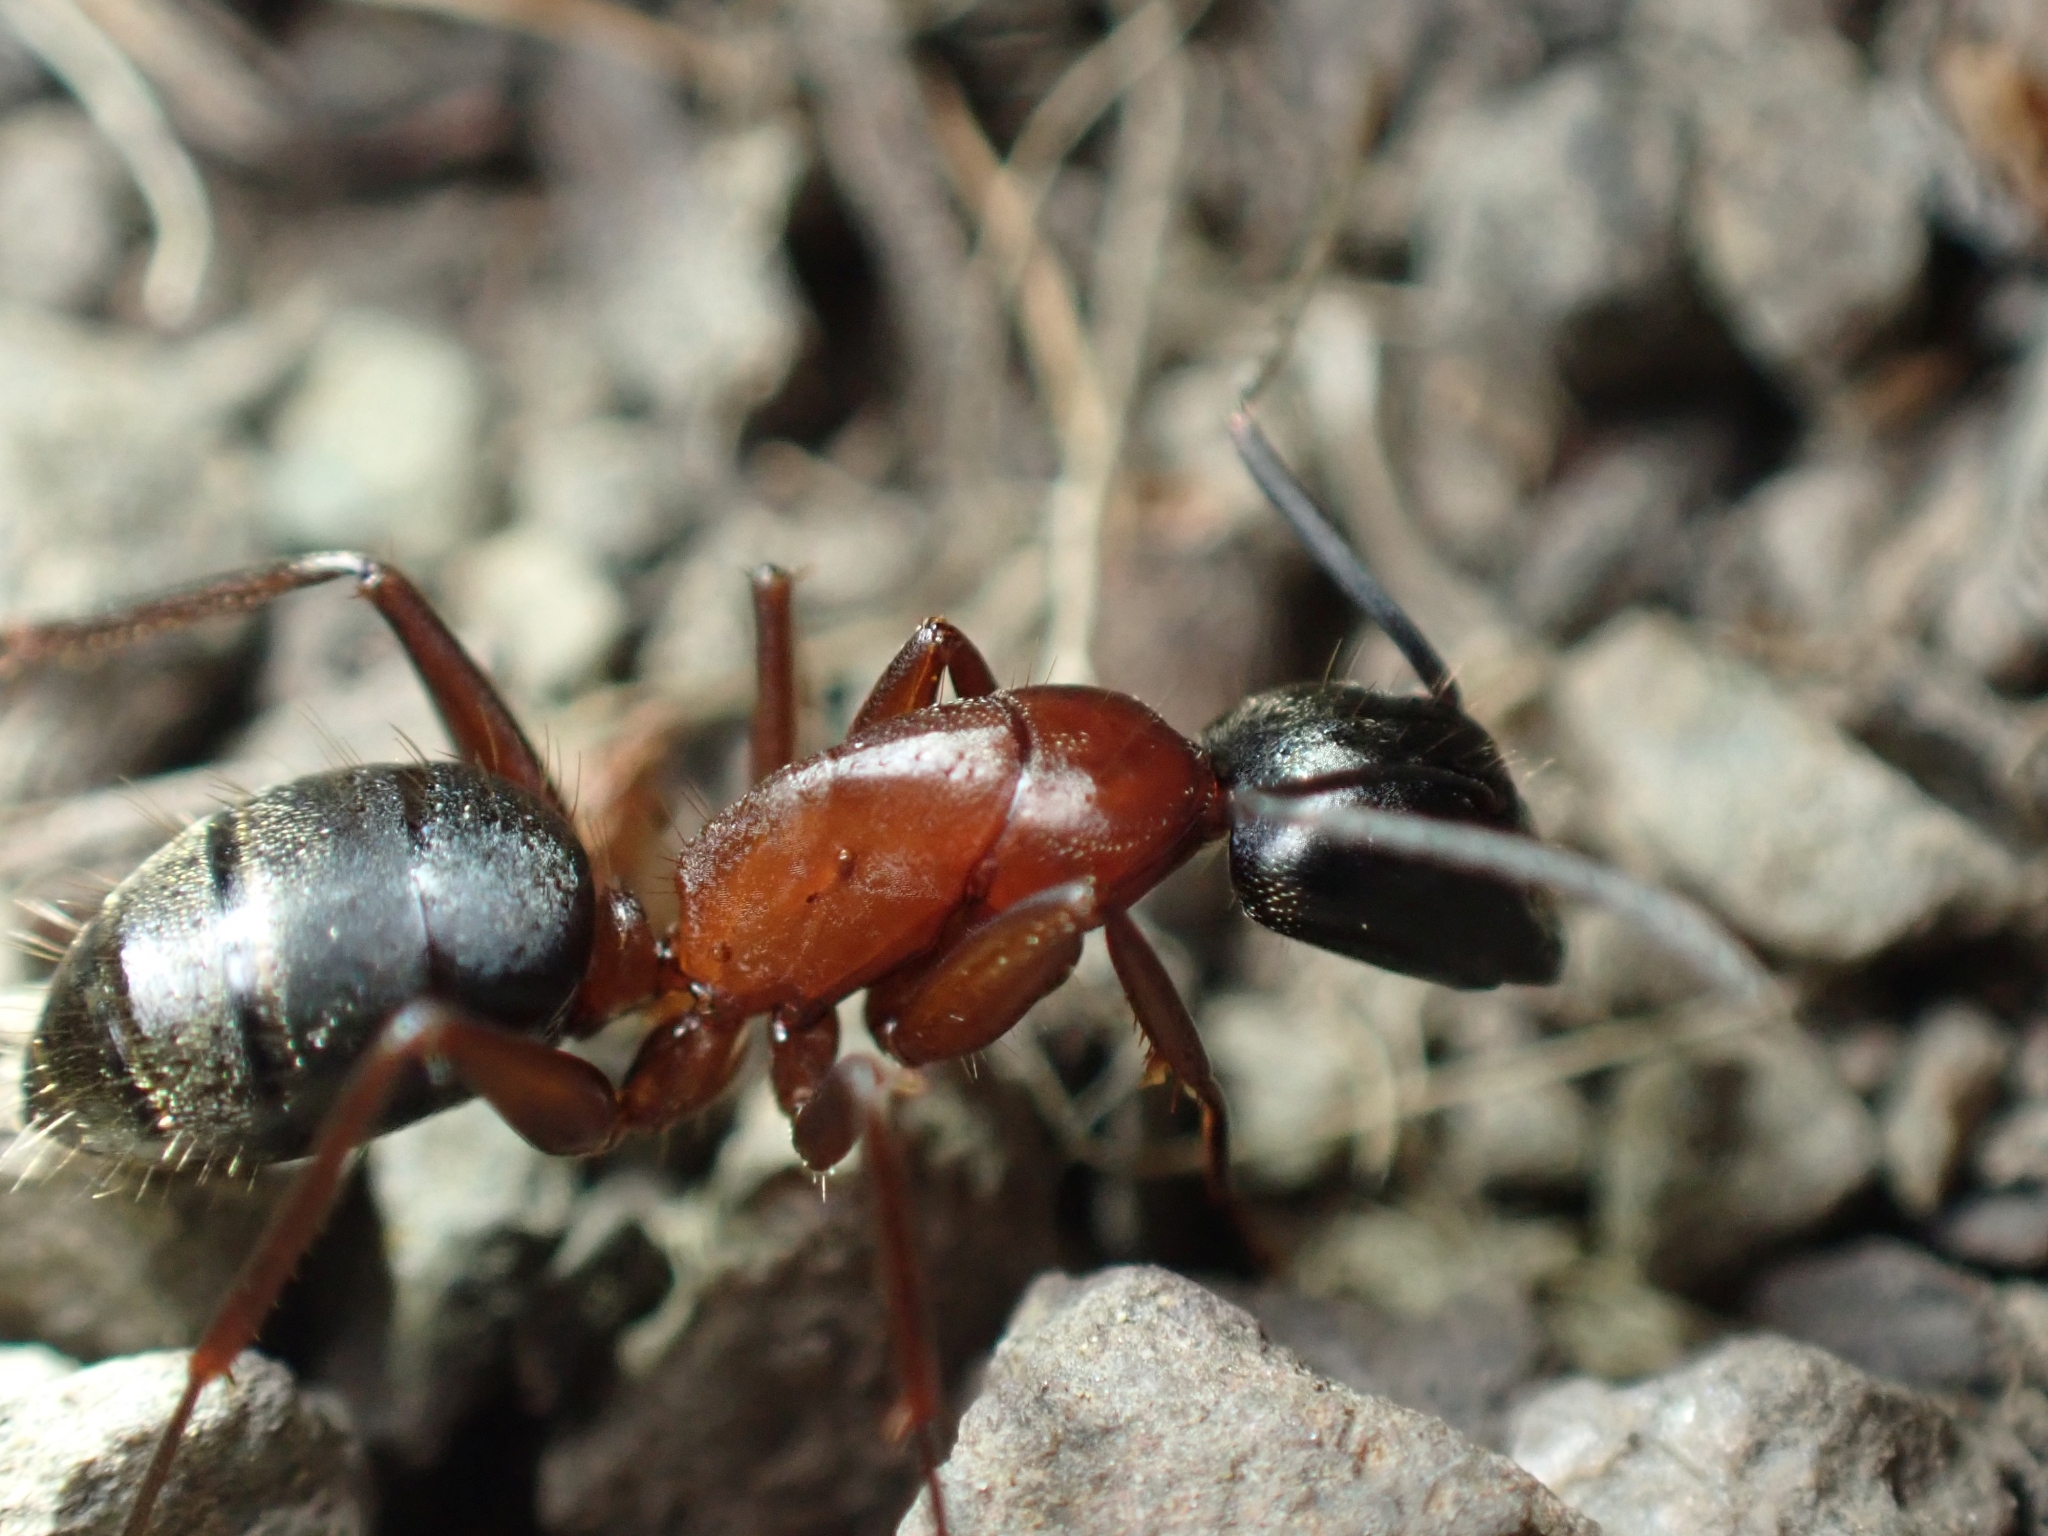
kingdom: Animalia
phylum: Arthropoda
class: Insecta
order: Hymenoptera
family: Formicidae
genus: Camponotus
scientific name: Camponotus vicinus
